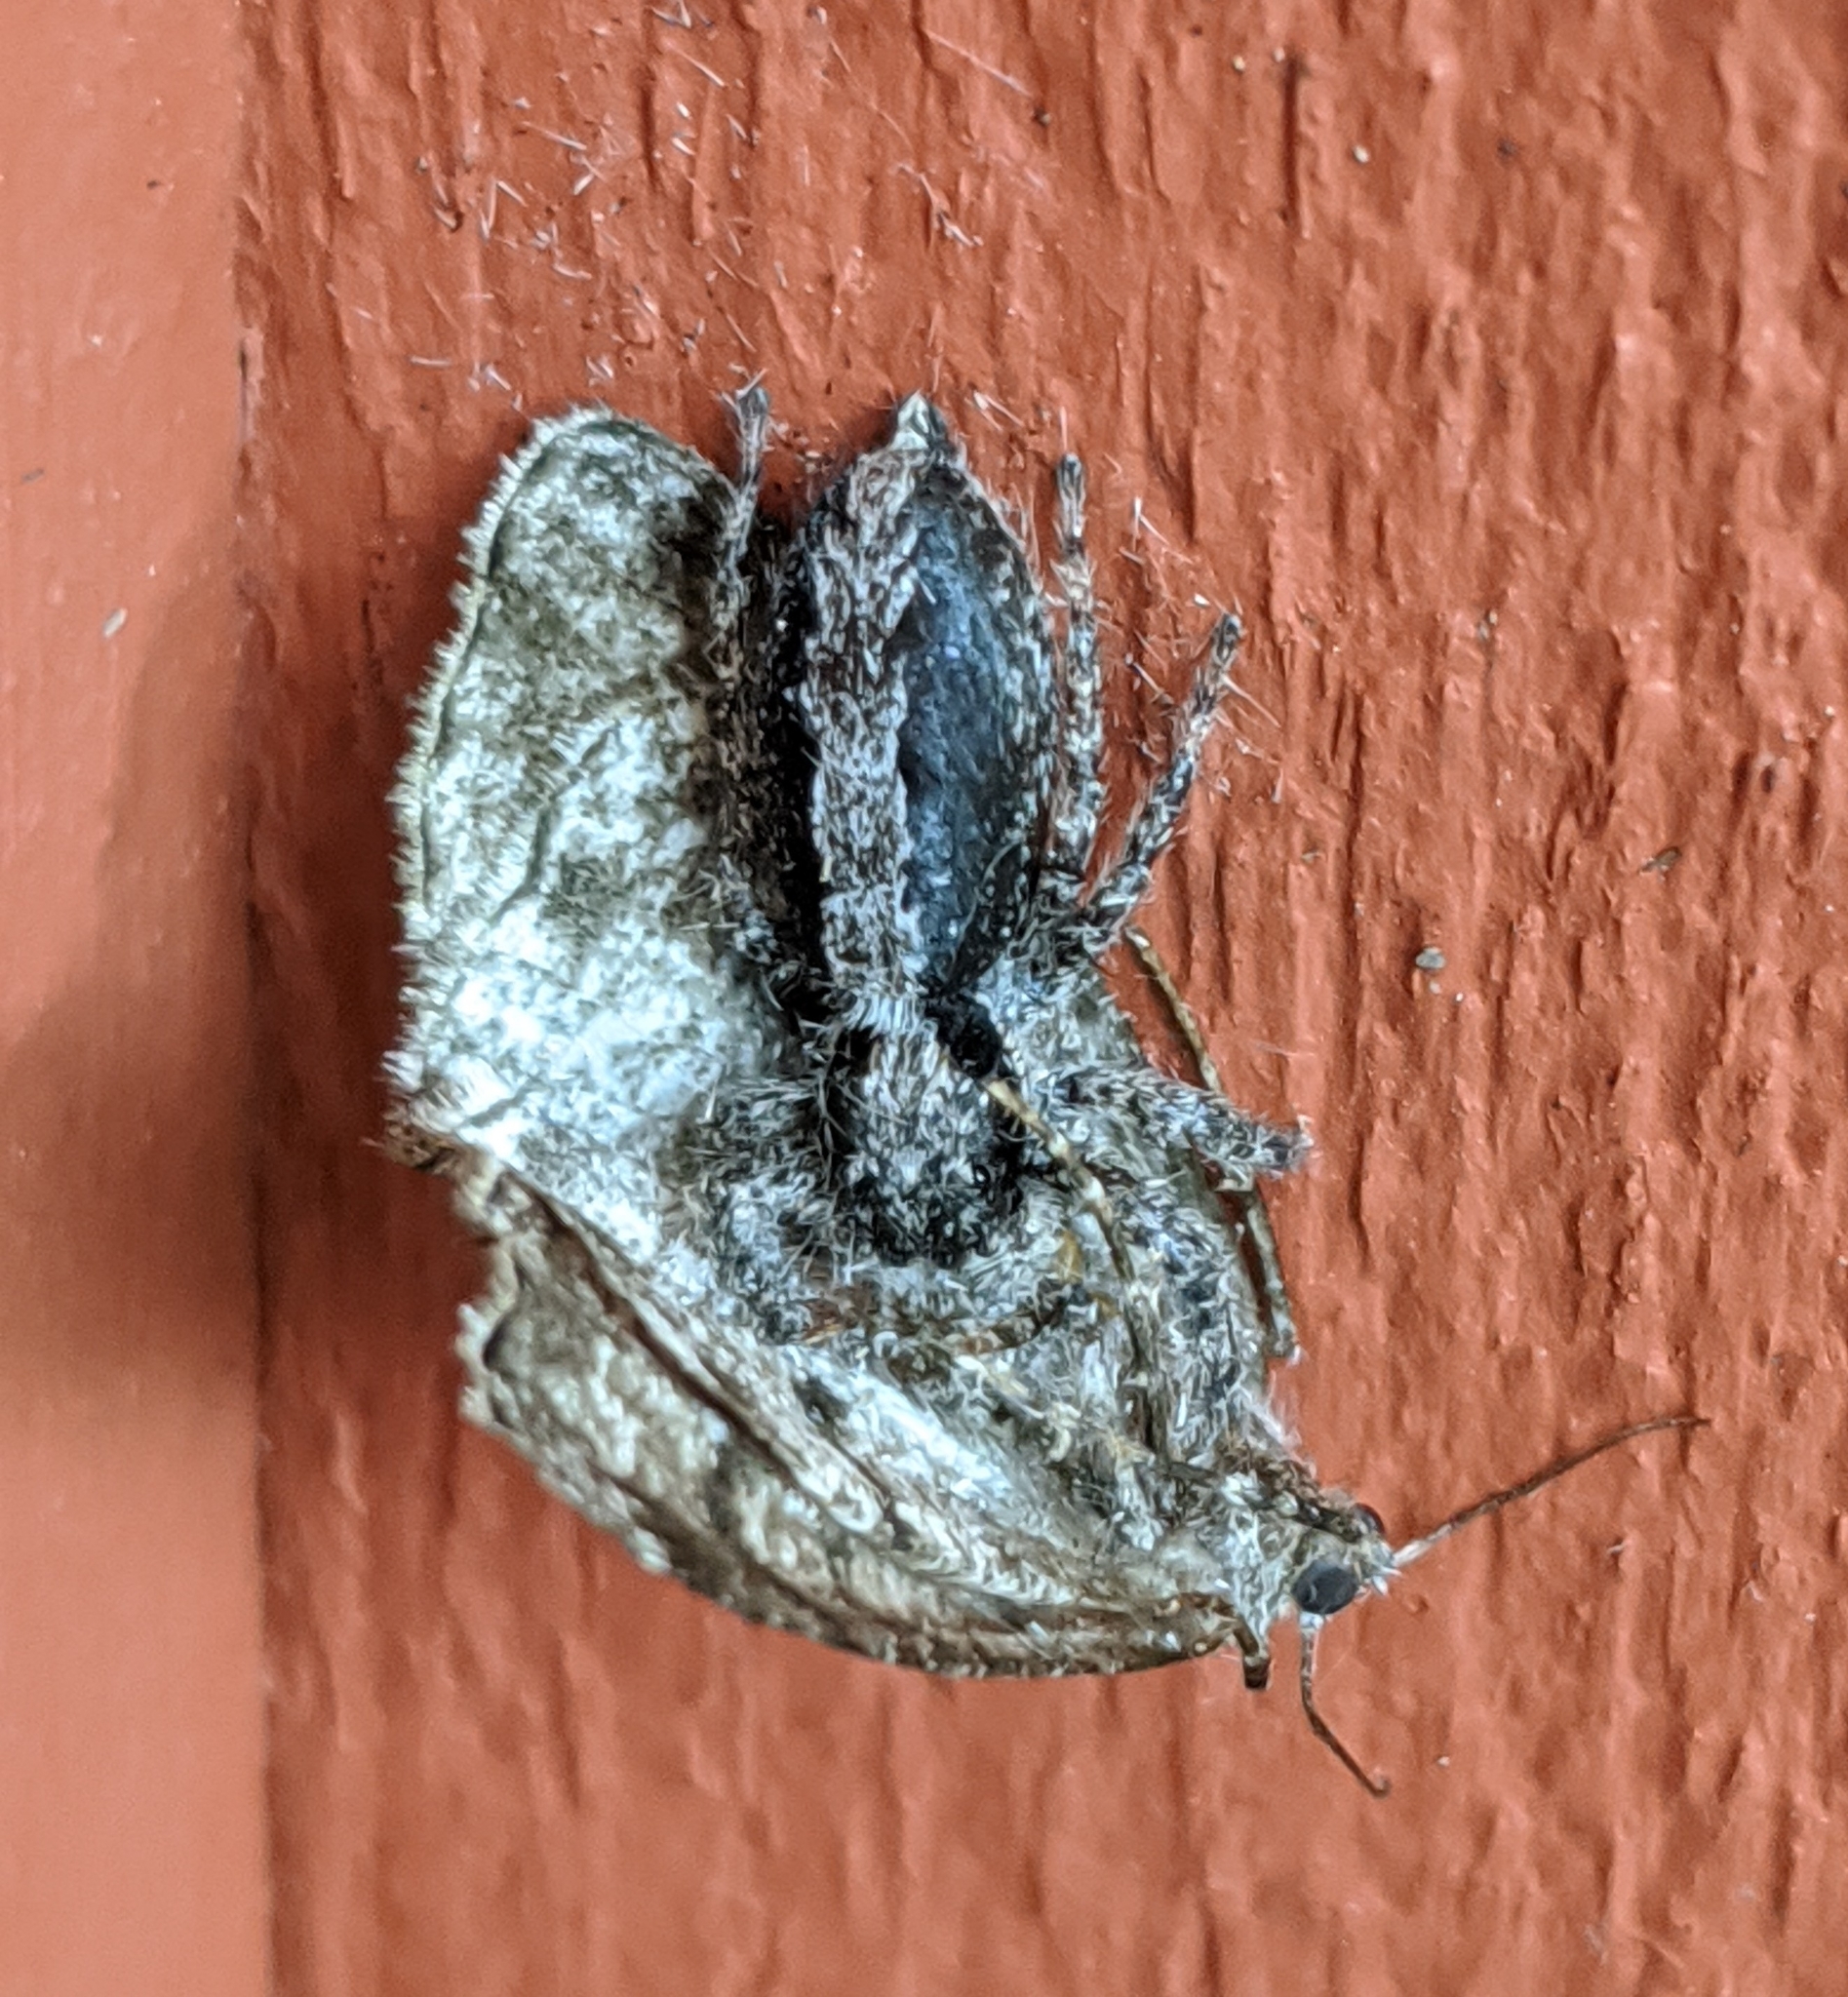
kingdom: Animalia
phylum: Arthropoda
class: Arachnida
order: Araneae
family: Salticidae
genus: Platycryptus
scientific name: Platycryptus californicus
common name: Jumping spiders
